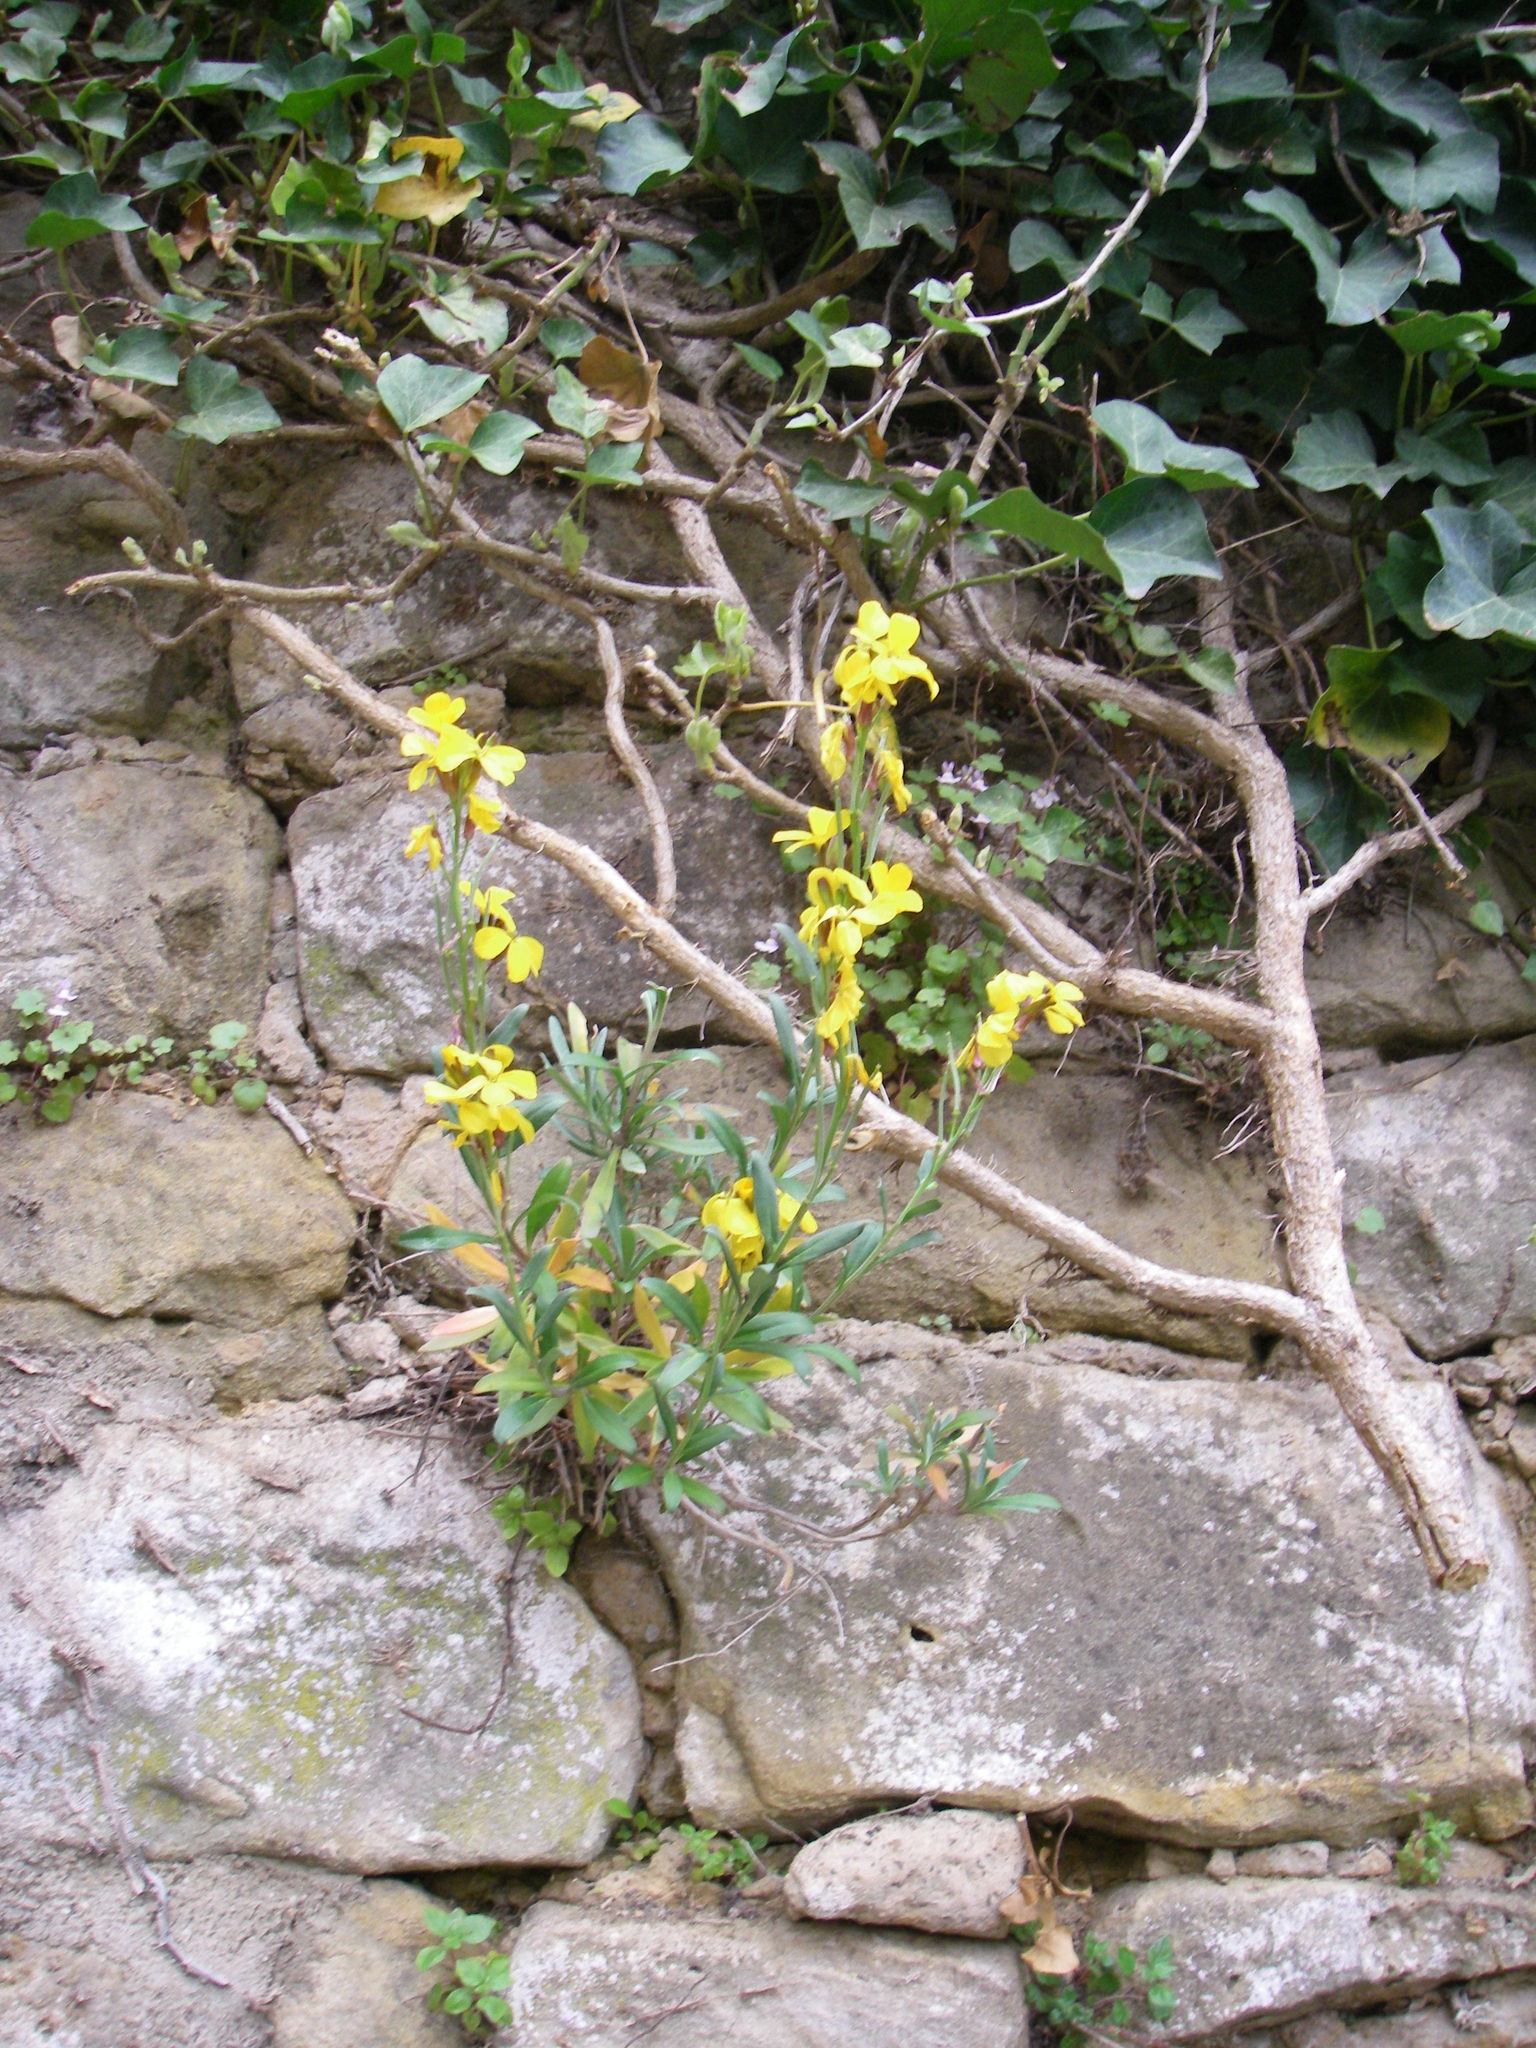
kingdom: Plantae
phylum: Tracheophyta
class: Magnoliopsida
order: Brassicales
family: Brassicaceae
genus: Erysimum
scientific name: Erysimum cheiri
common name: Wallflower
